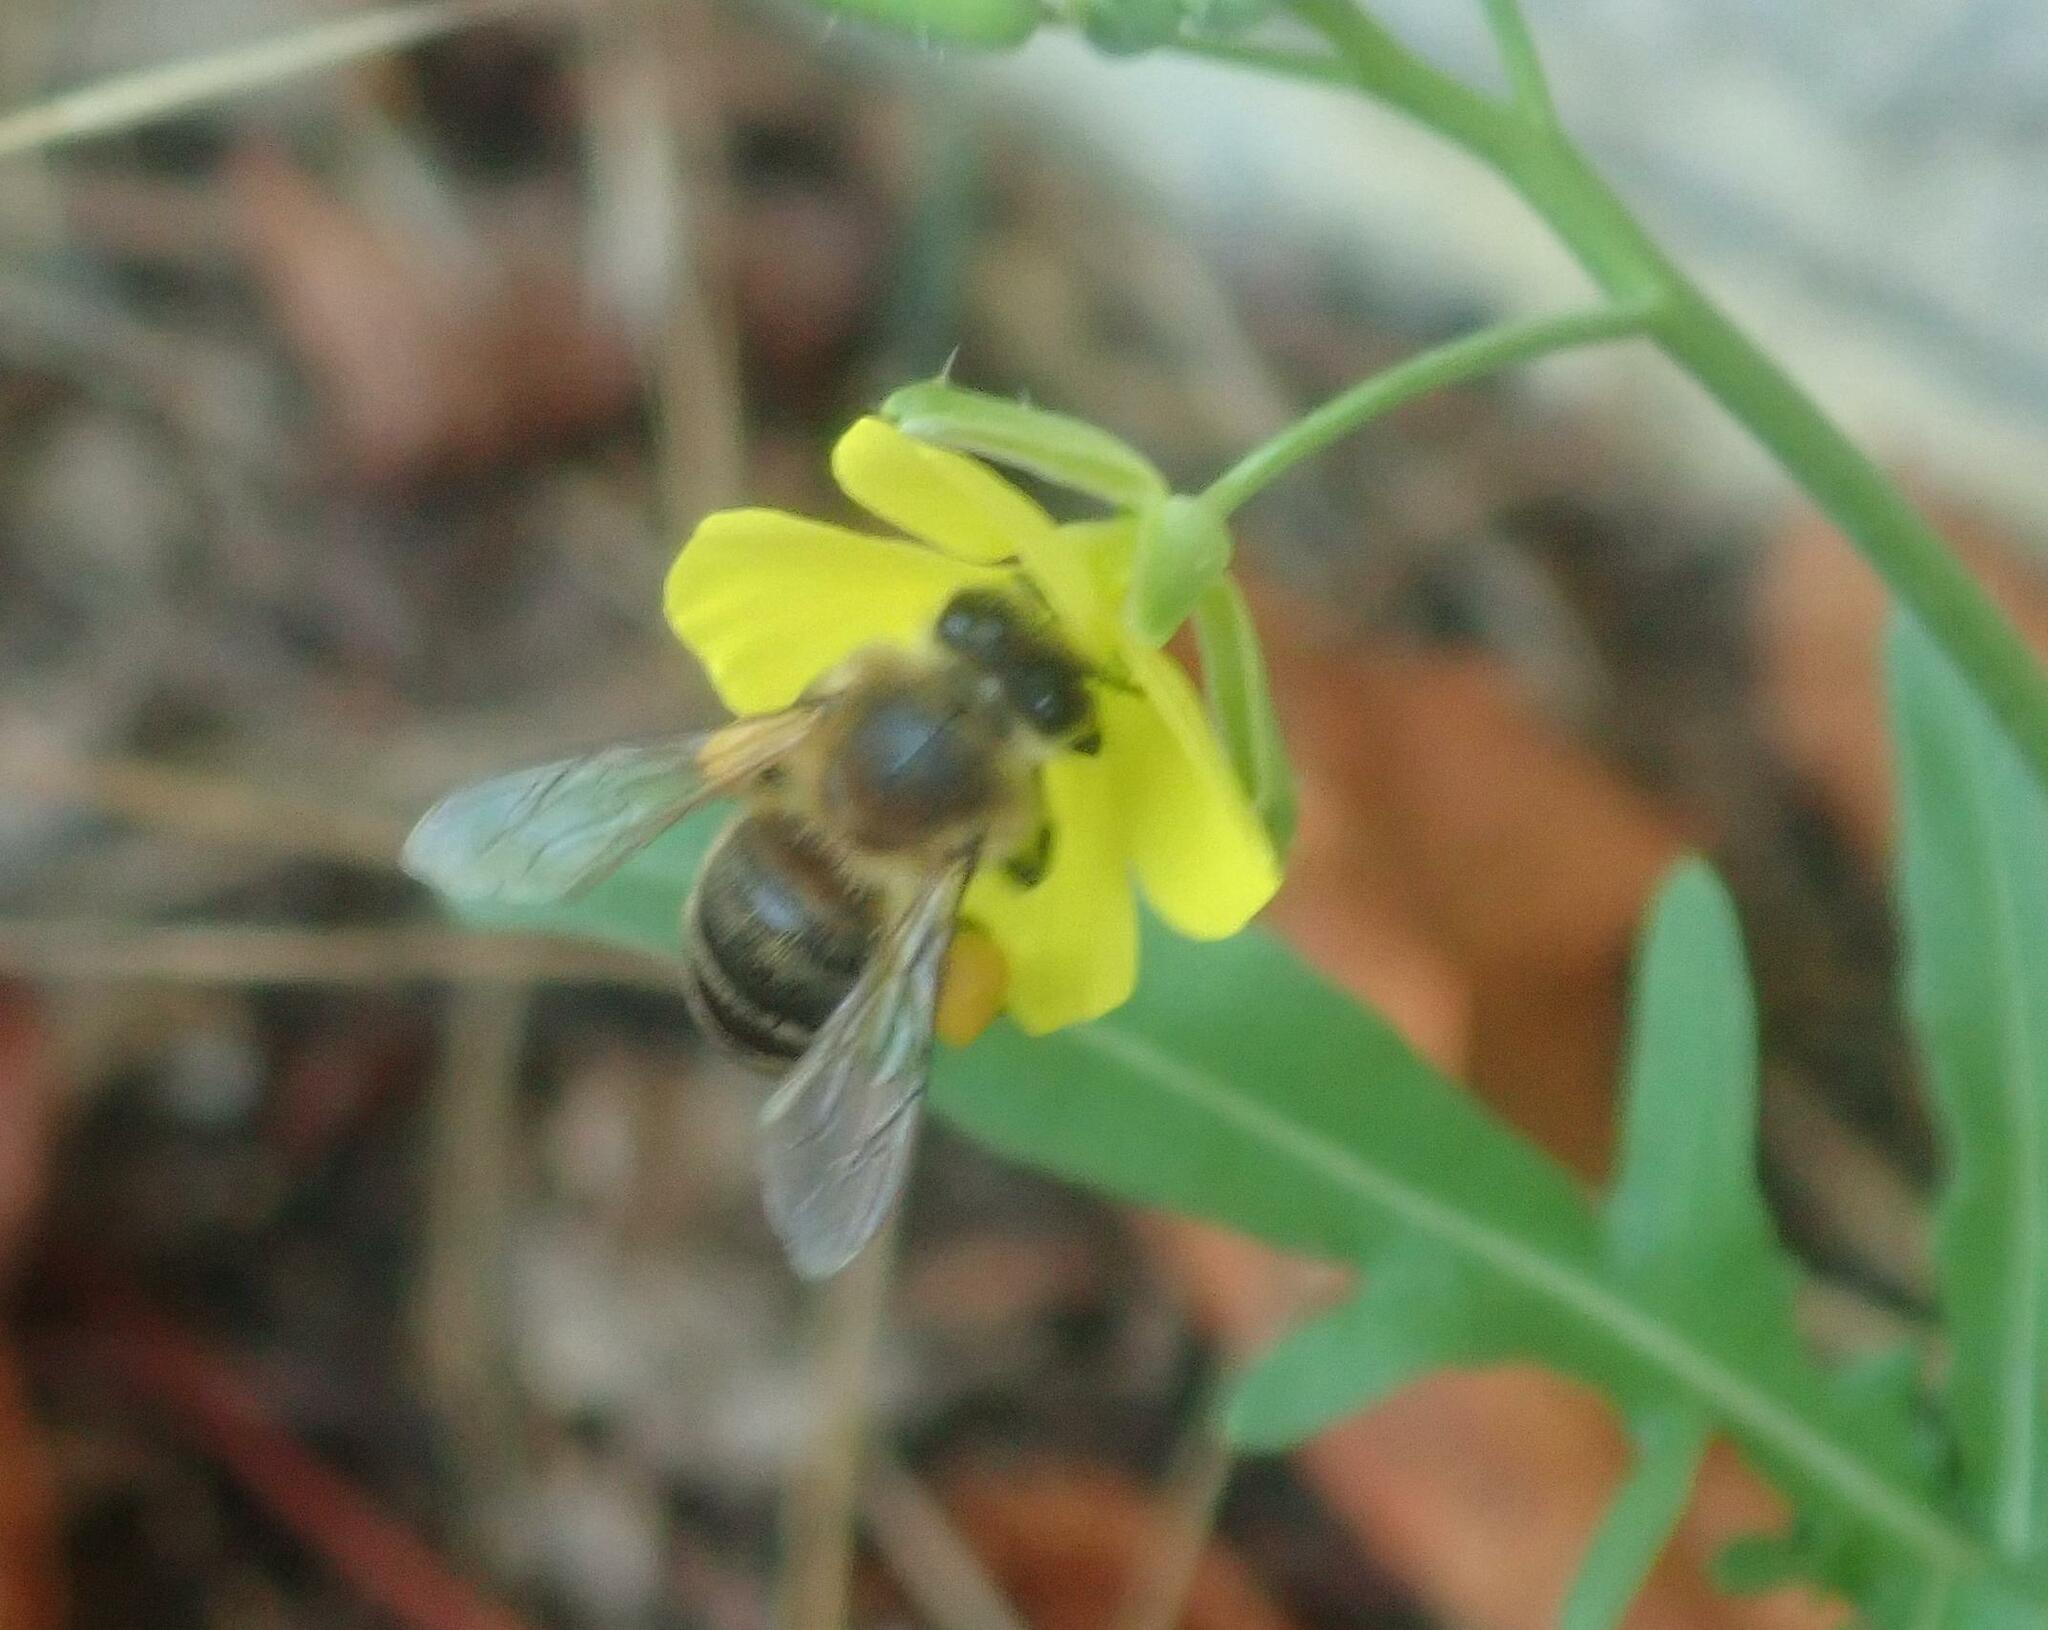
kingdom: Animalia
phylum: Arthropoda
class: Insecta
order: Hymenoptera
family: Apidae
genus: Apis
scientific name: Apis mellifera
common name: Honey bee
